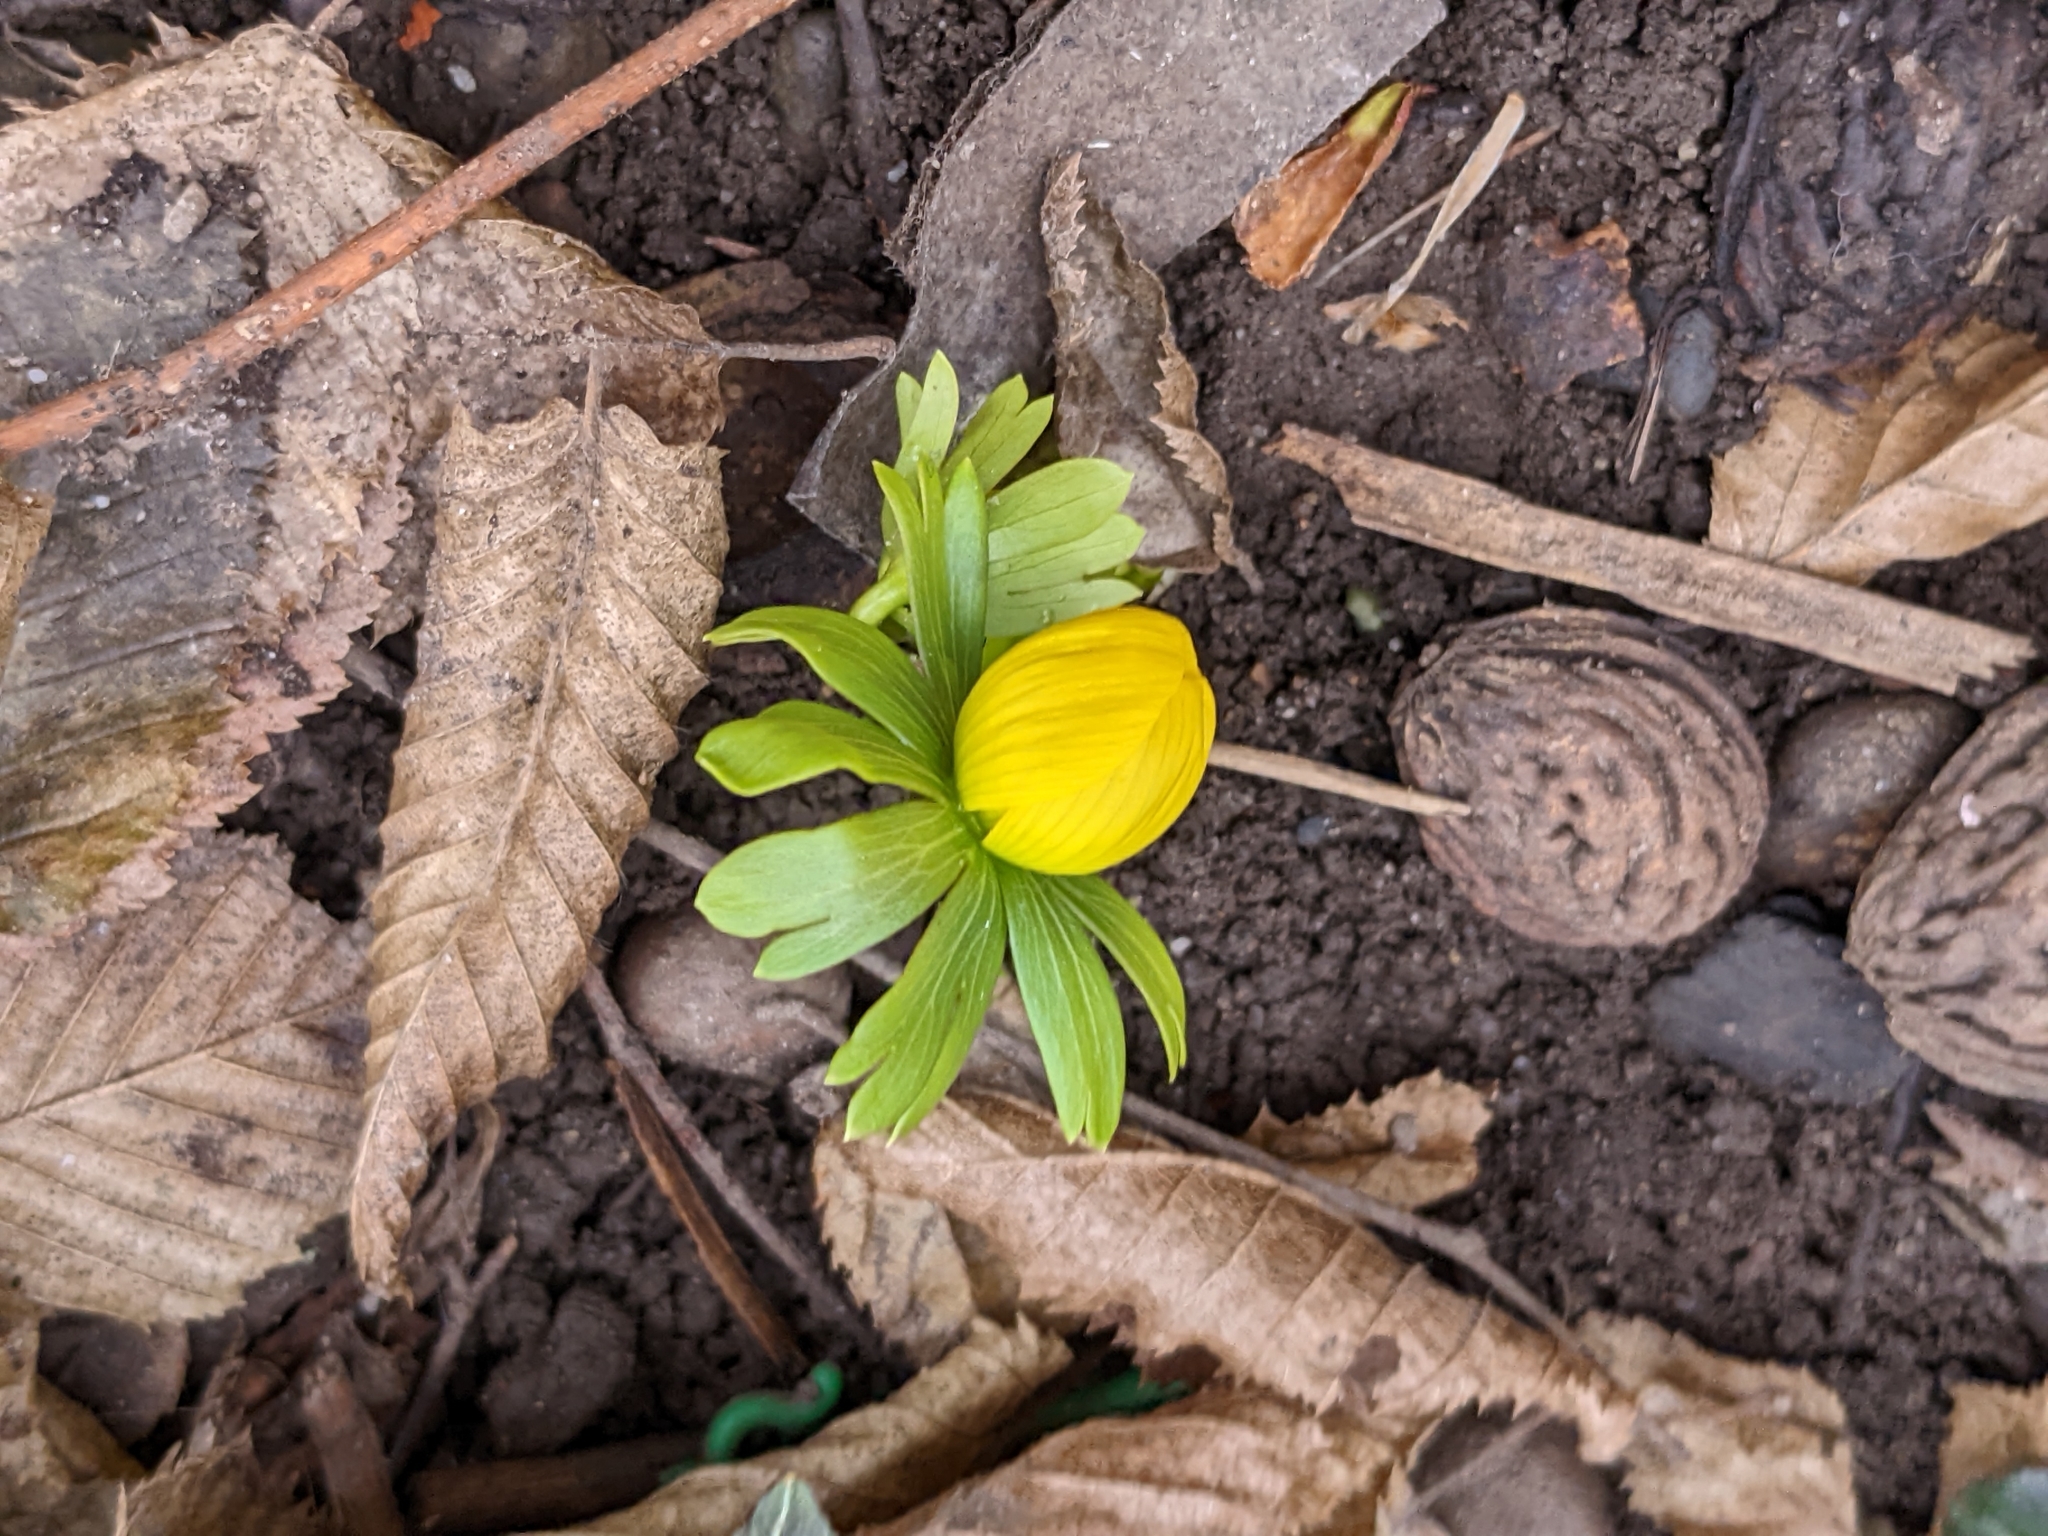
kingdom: Plantae
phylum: Tracheophyta
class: Magnoliopsida
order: Ranunculales
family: Ranunculaceae
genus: Eranthis
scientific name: Eranthis hyemalis
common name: Winter aconite
